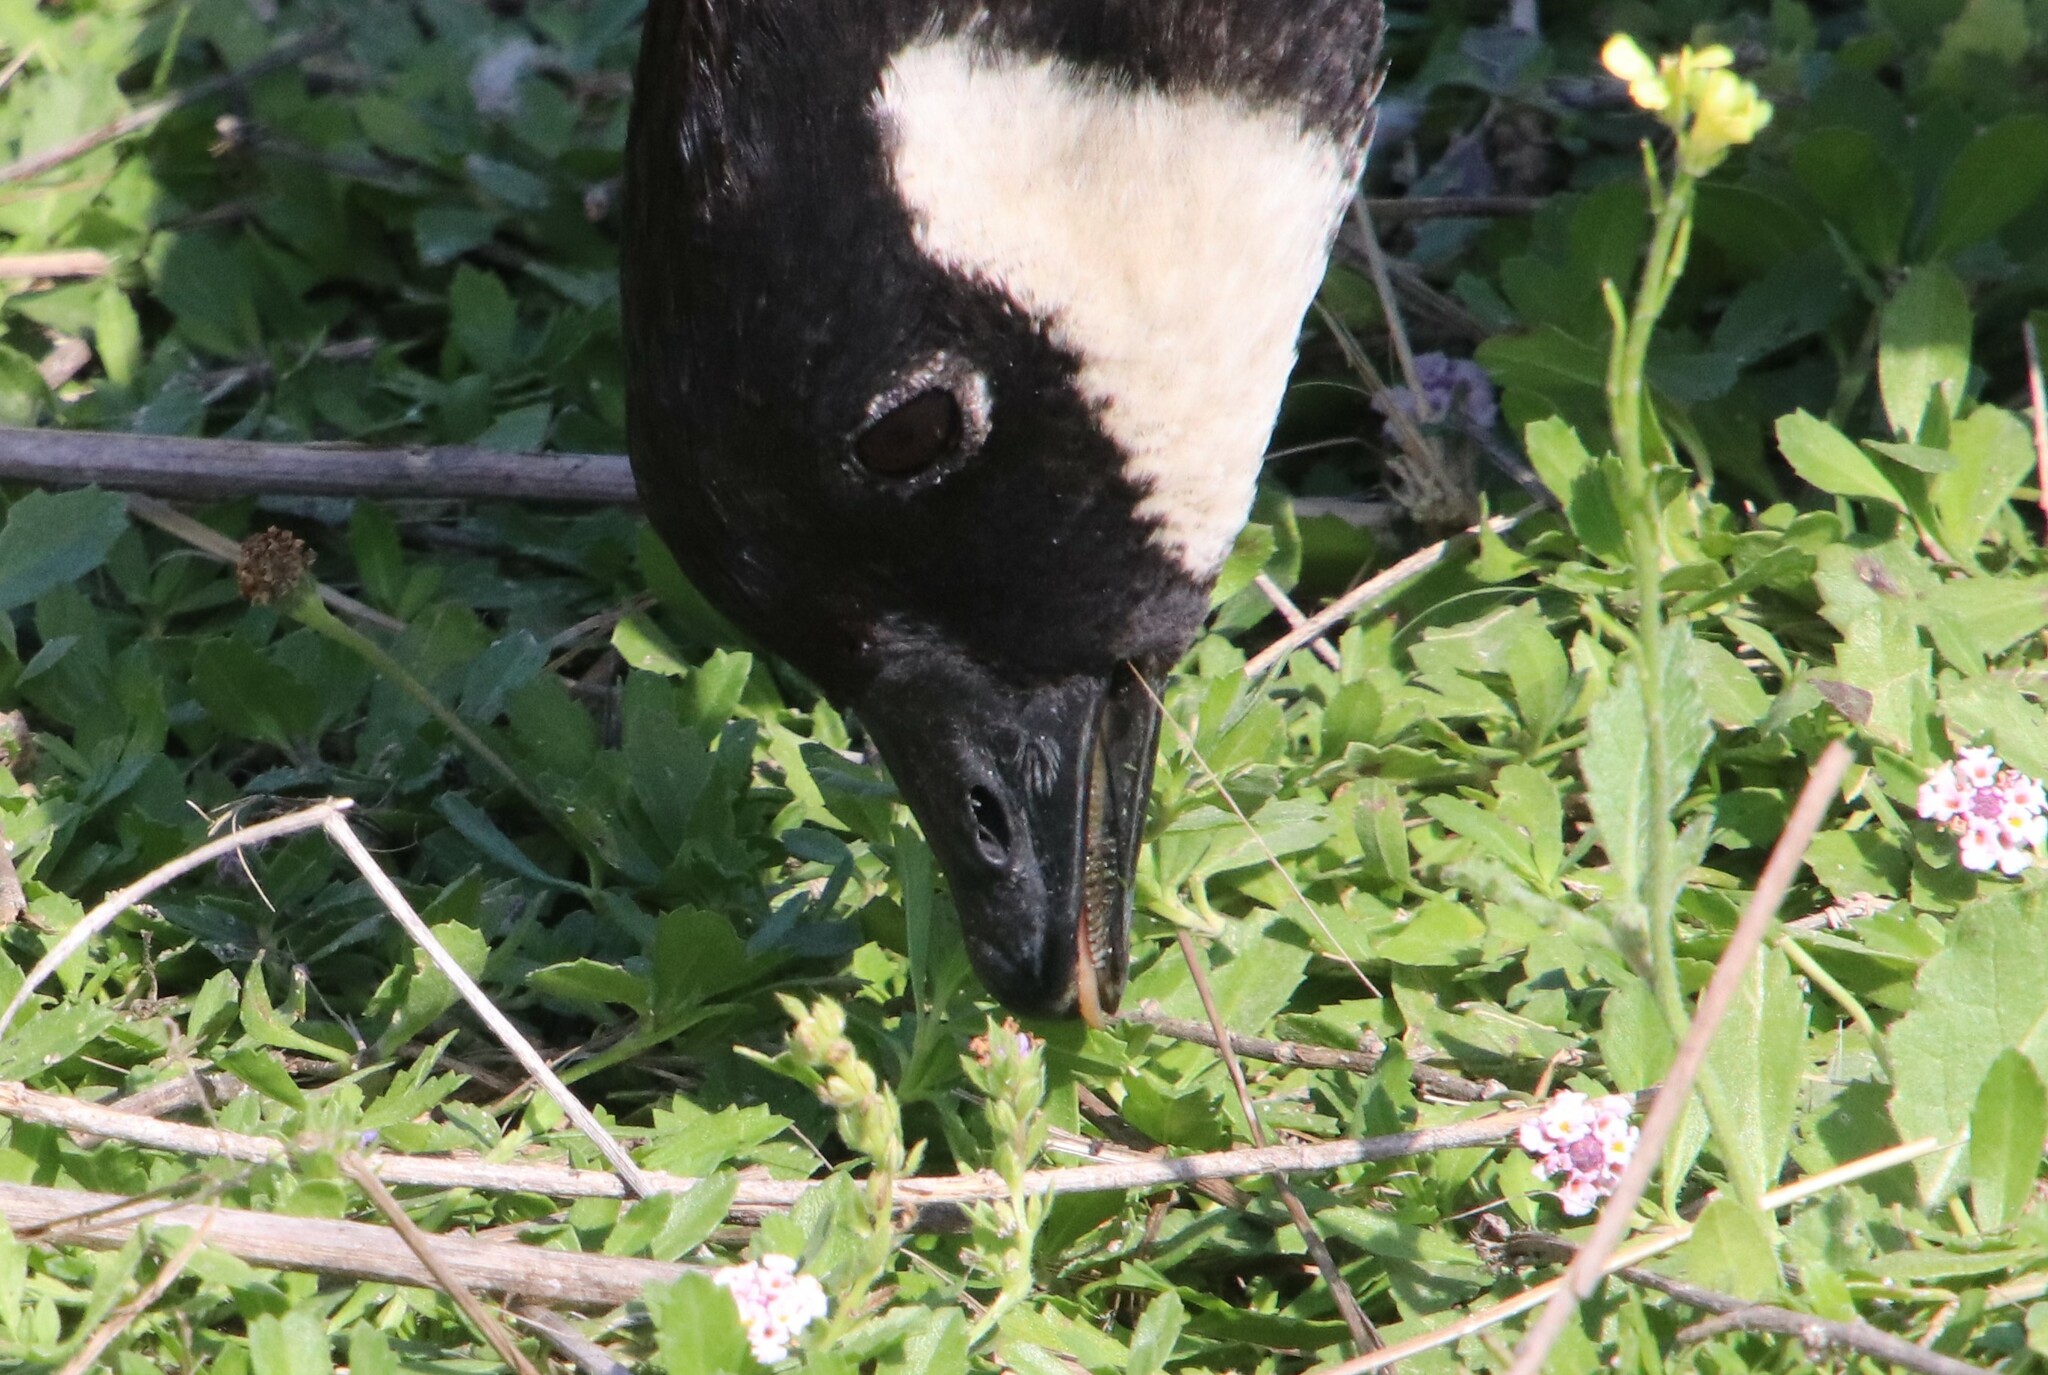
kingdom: Animalia
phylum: Chordata
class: Aves
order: Anseriformes
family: Anatidae
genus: Branta
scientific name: Branta hutchinsii
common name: Cackling goose
